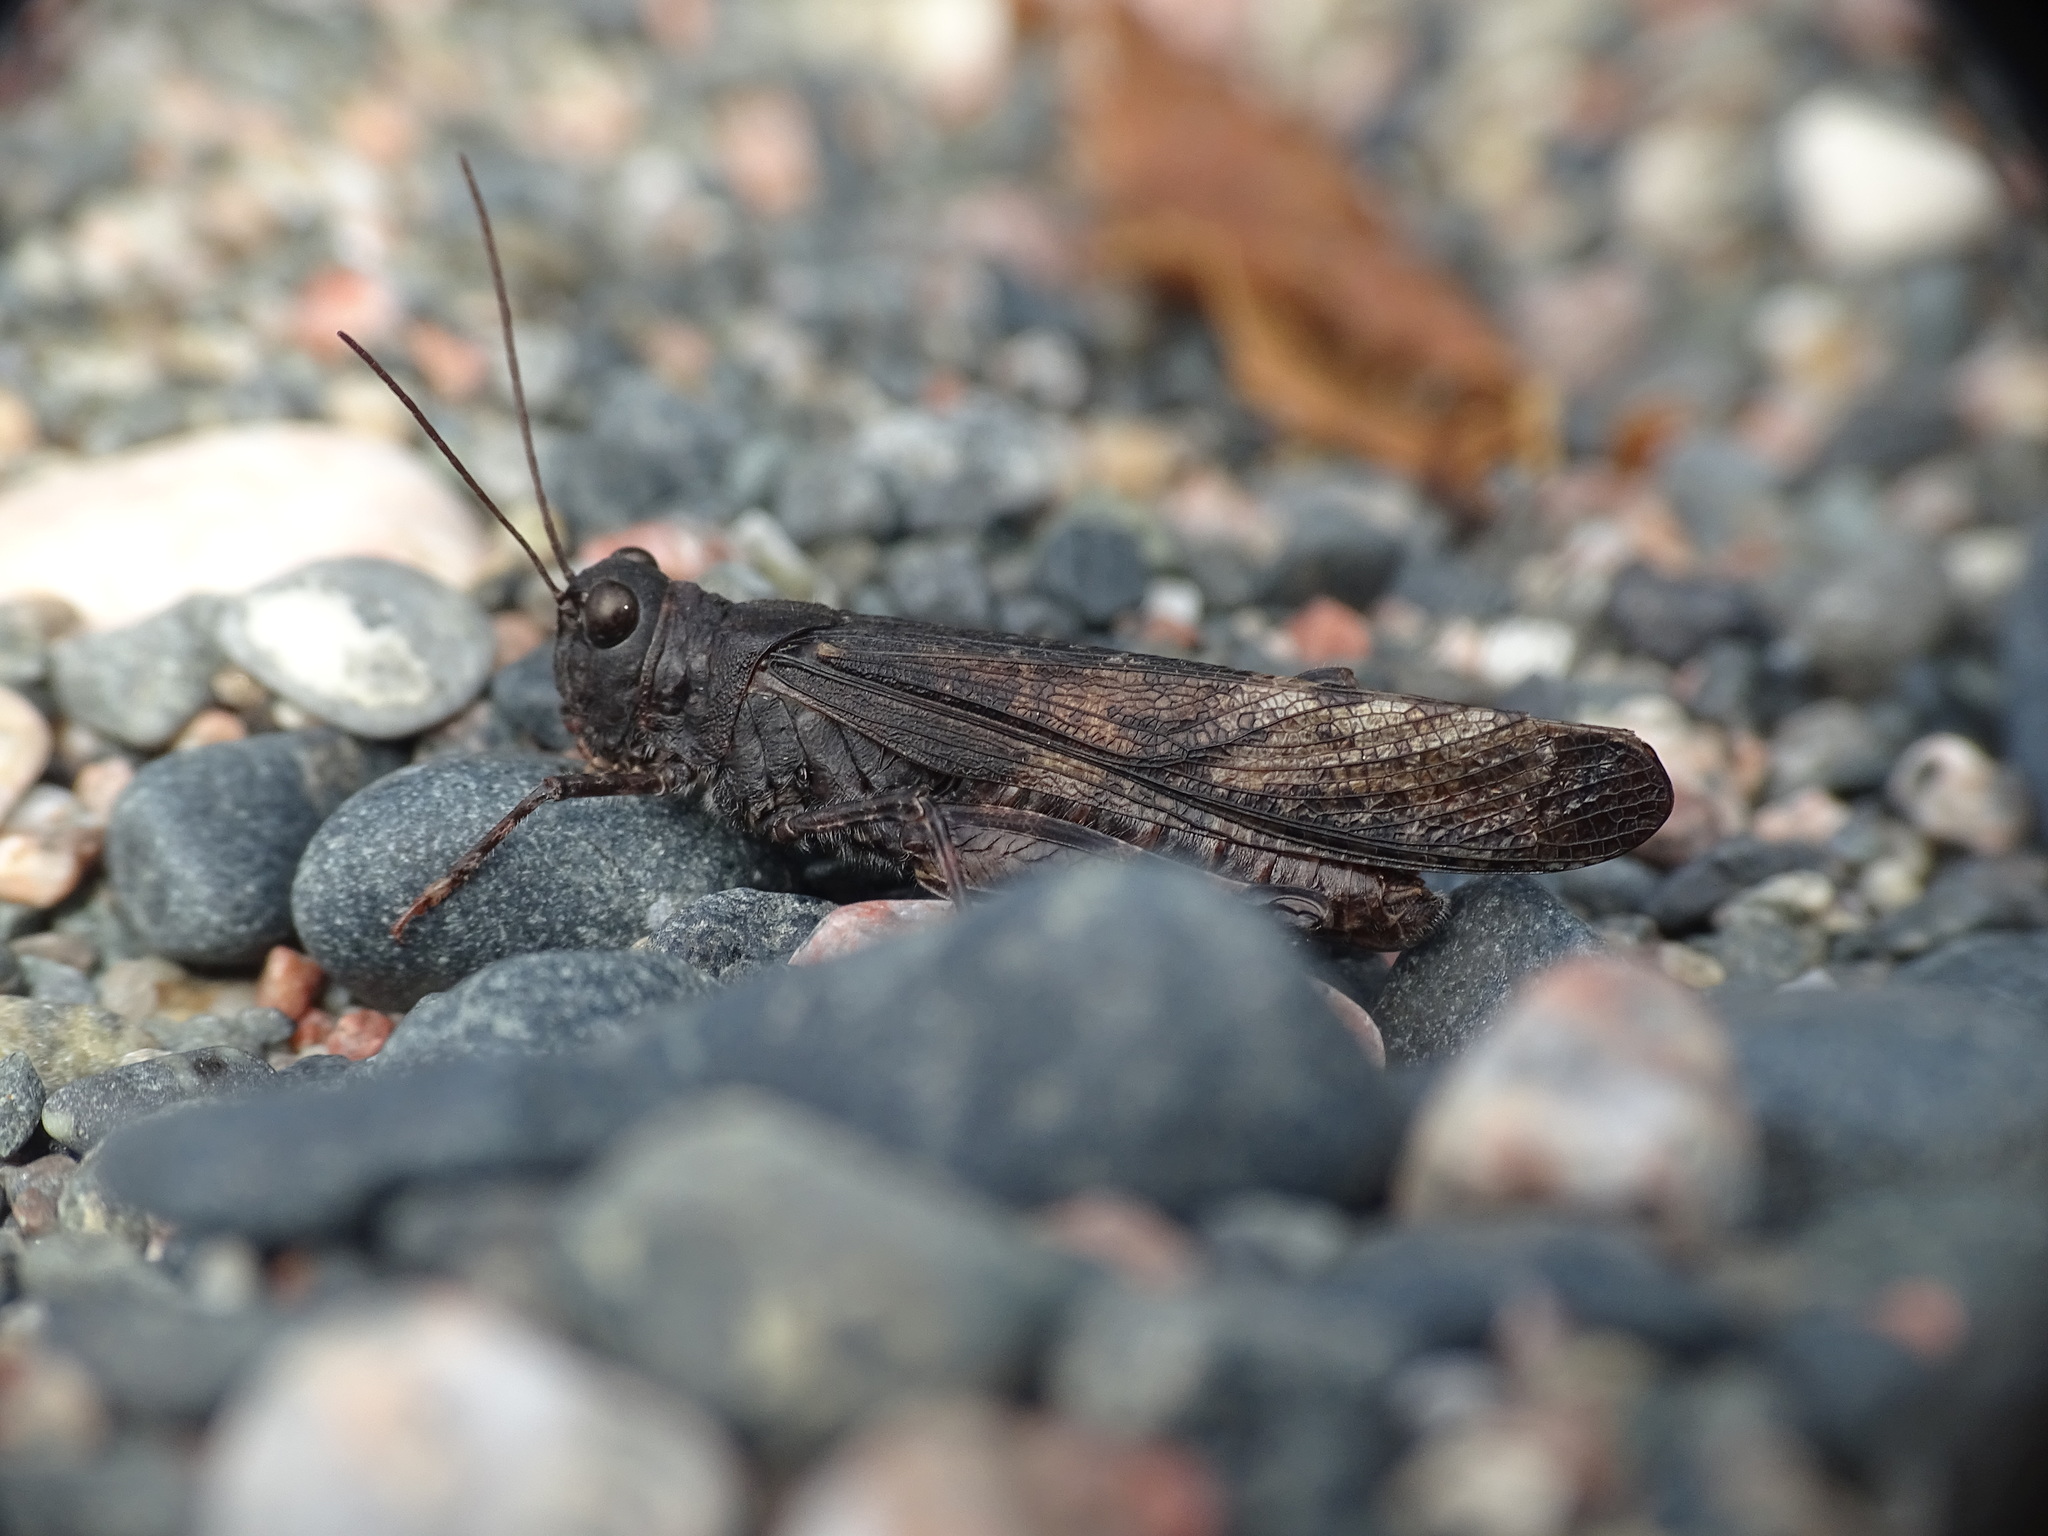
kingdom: Animalia
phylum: Arthropoda
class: Insecta
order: Orthoptera
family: Acrididae
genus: Trimerotropis
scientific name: Trimerotropis verruculata
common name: Crackling forest grasshopper
